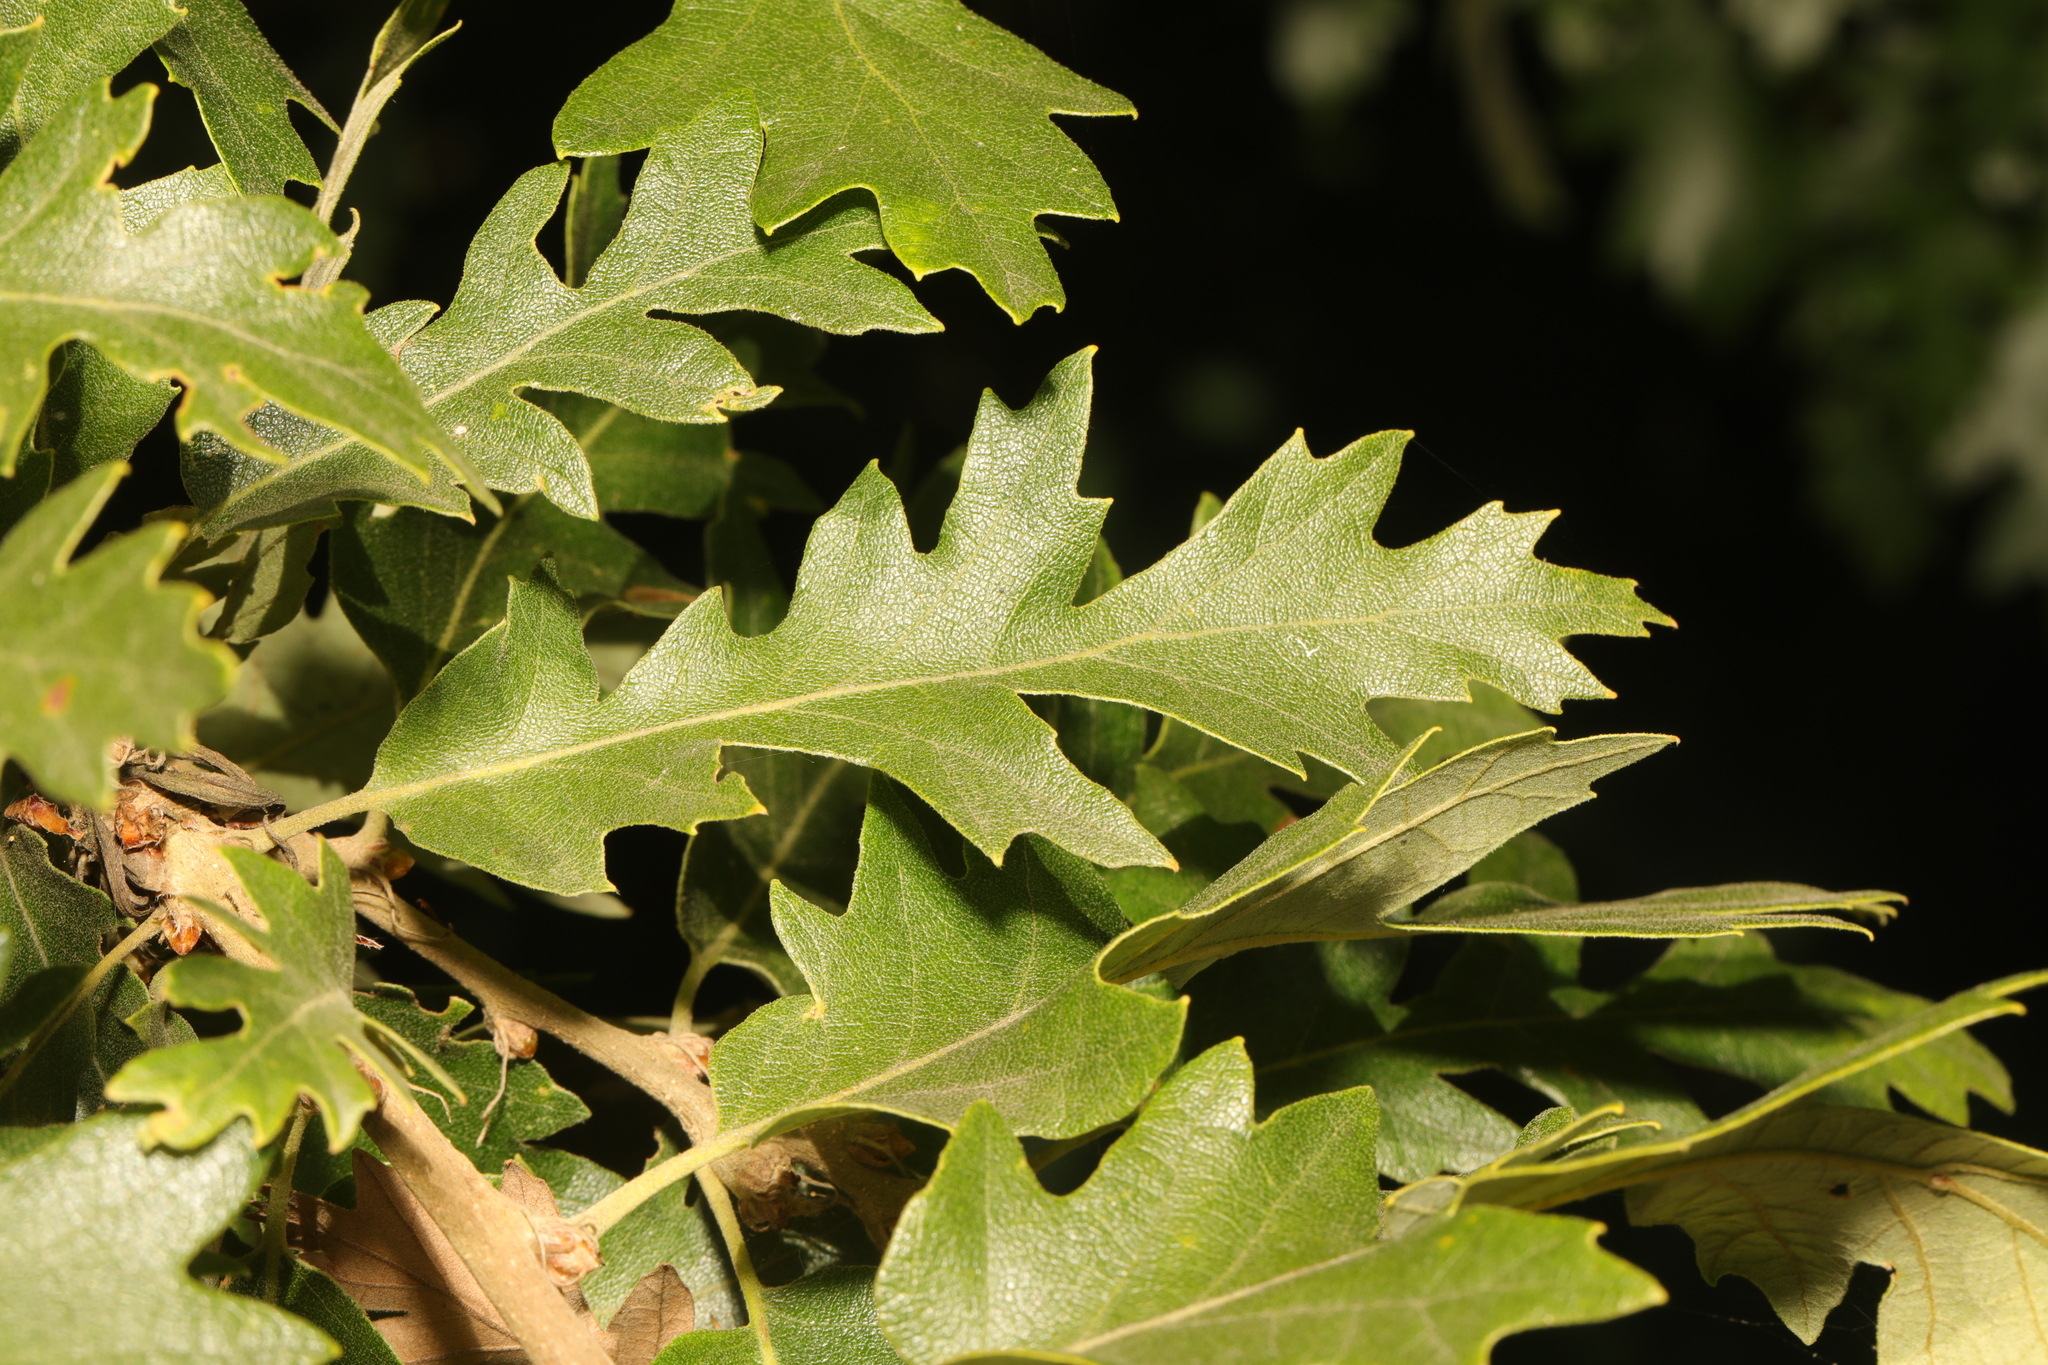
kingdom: Plantae
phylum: Tracheophyta
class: Magnoliopsida
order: Fagales
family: Fagaceae
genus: Quercus
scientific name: Quercus cerris
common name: Turkey oak
